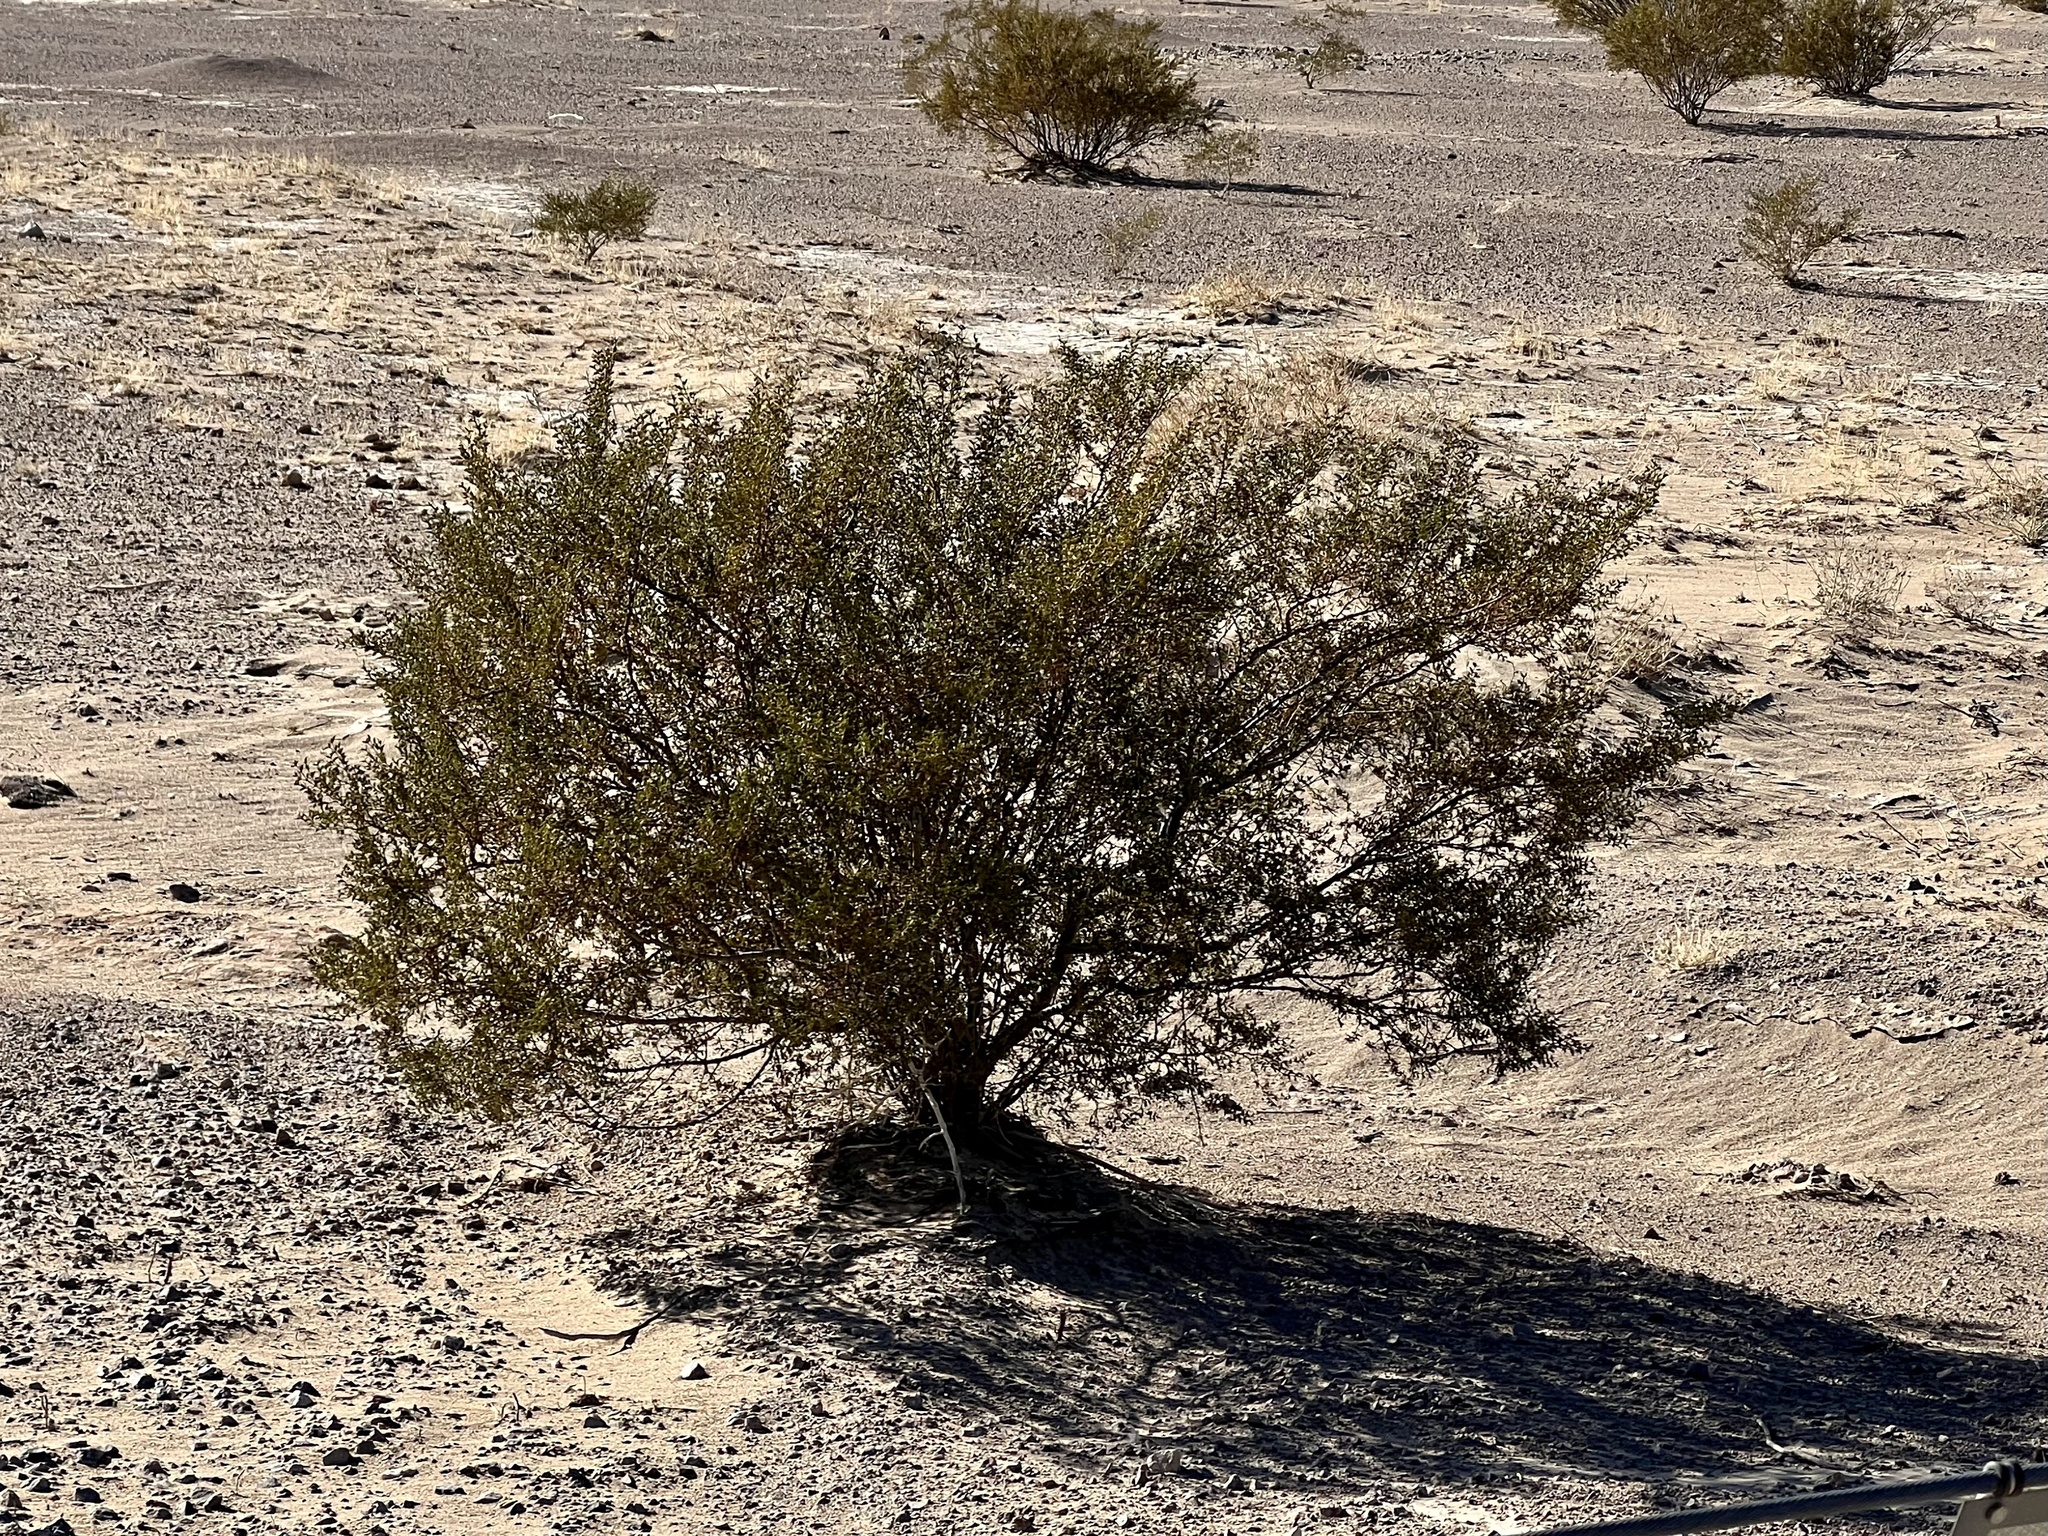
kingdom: Plantae
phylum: Tracheophyta
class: Magnoliopsida
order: Zygophyllales
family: Zygophyllaceae
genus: Larrea
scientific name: Larrea tridentata
